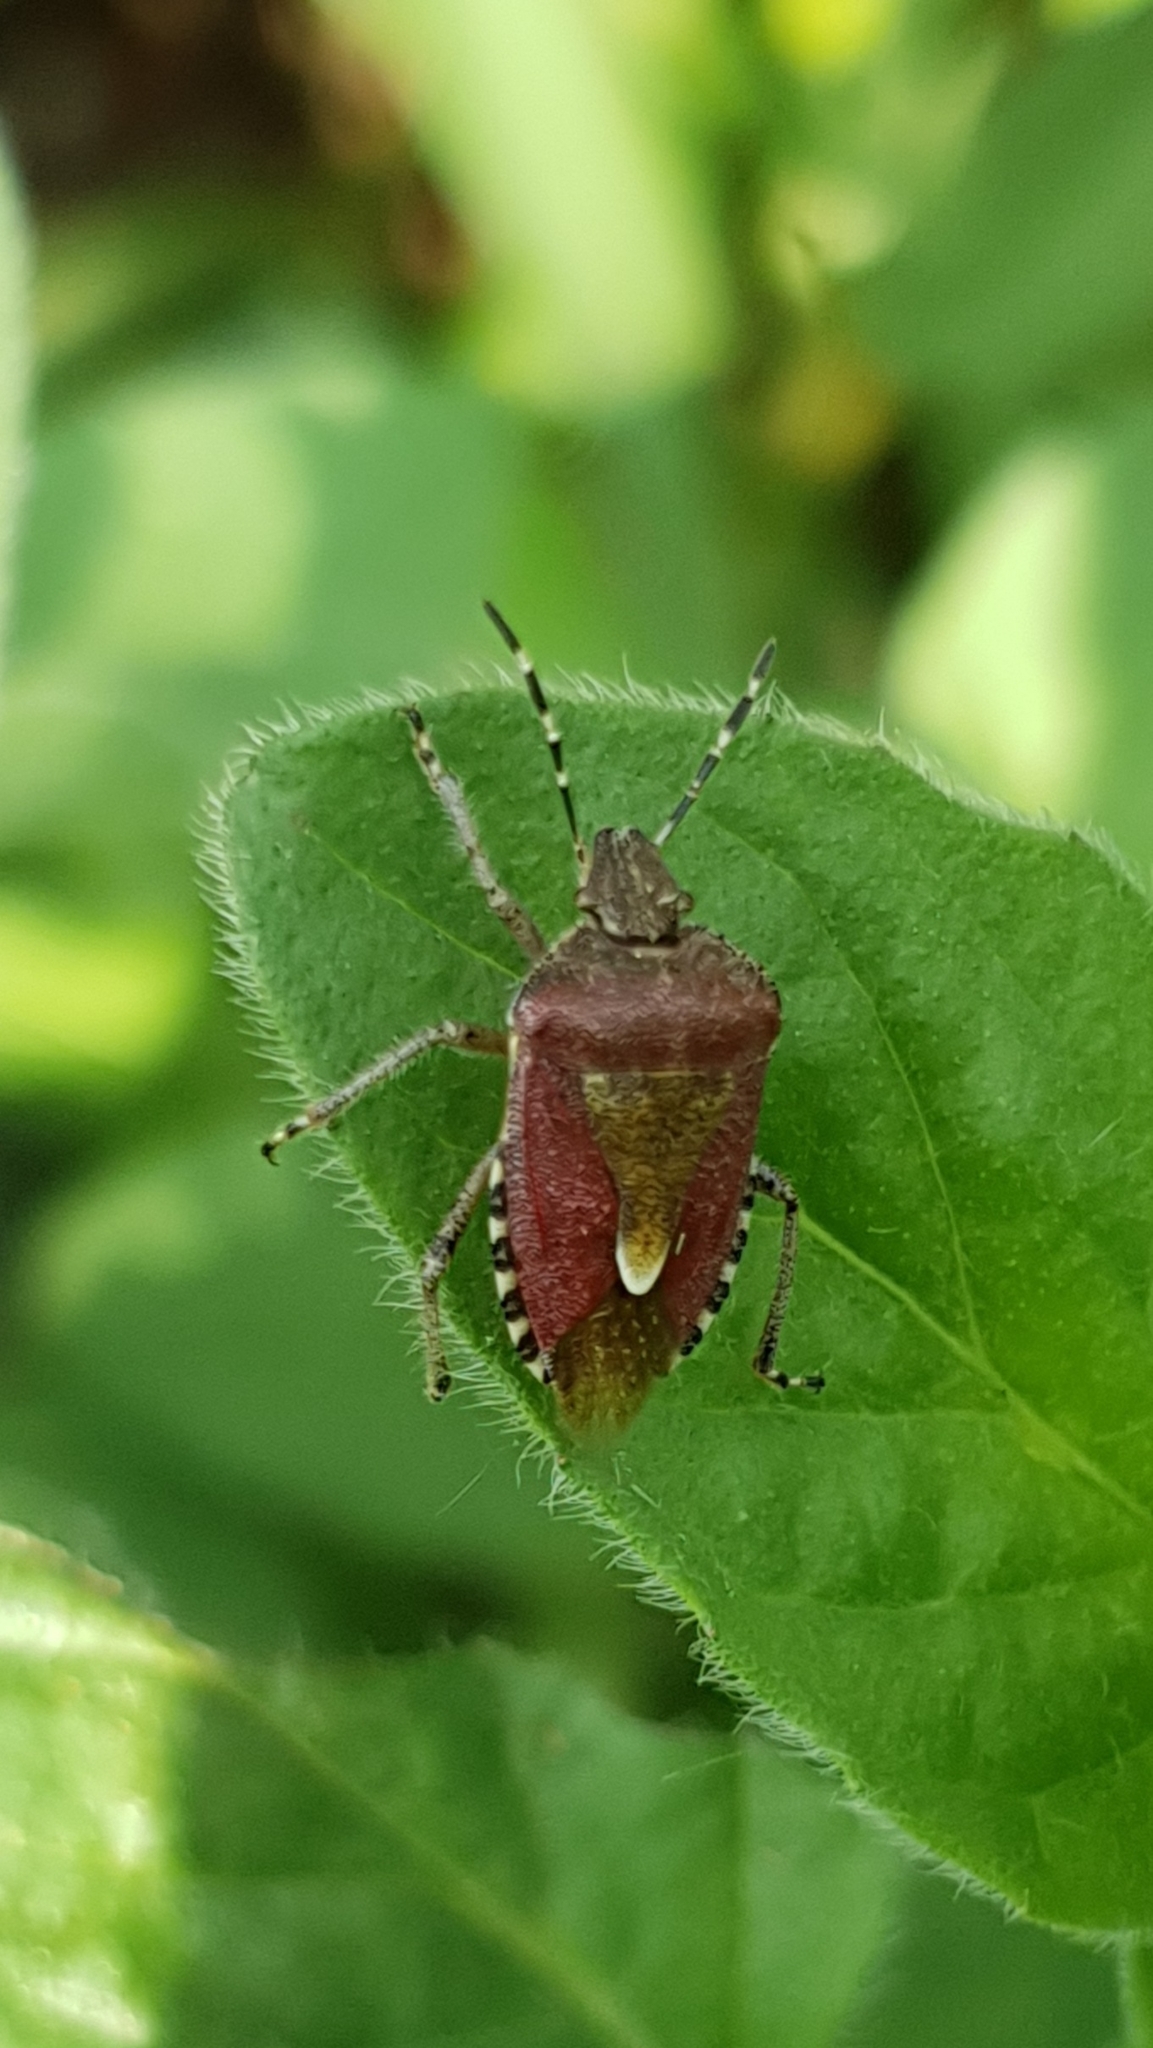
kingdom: Animalia
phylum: Arthropoda
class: Insecta
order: Hemiptera
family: Pentatomidae
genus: Dolycoris
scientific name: Dolycoris baccarum
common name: Sloe bug
